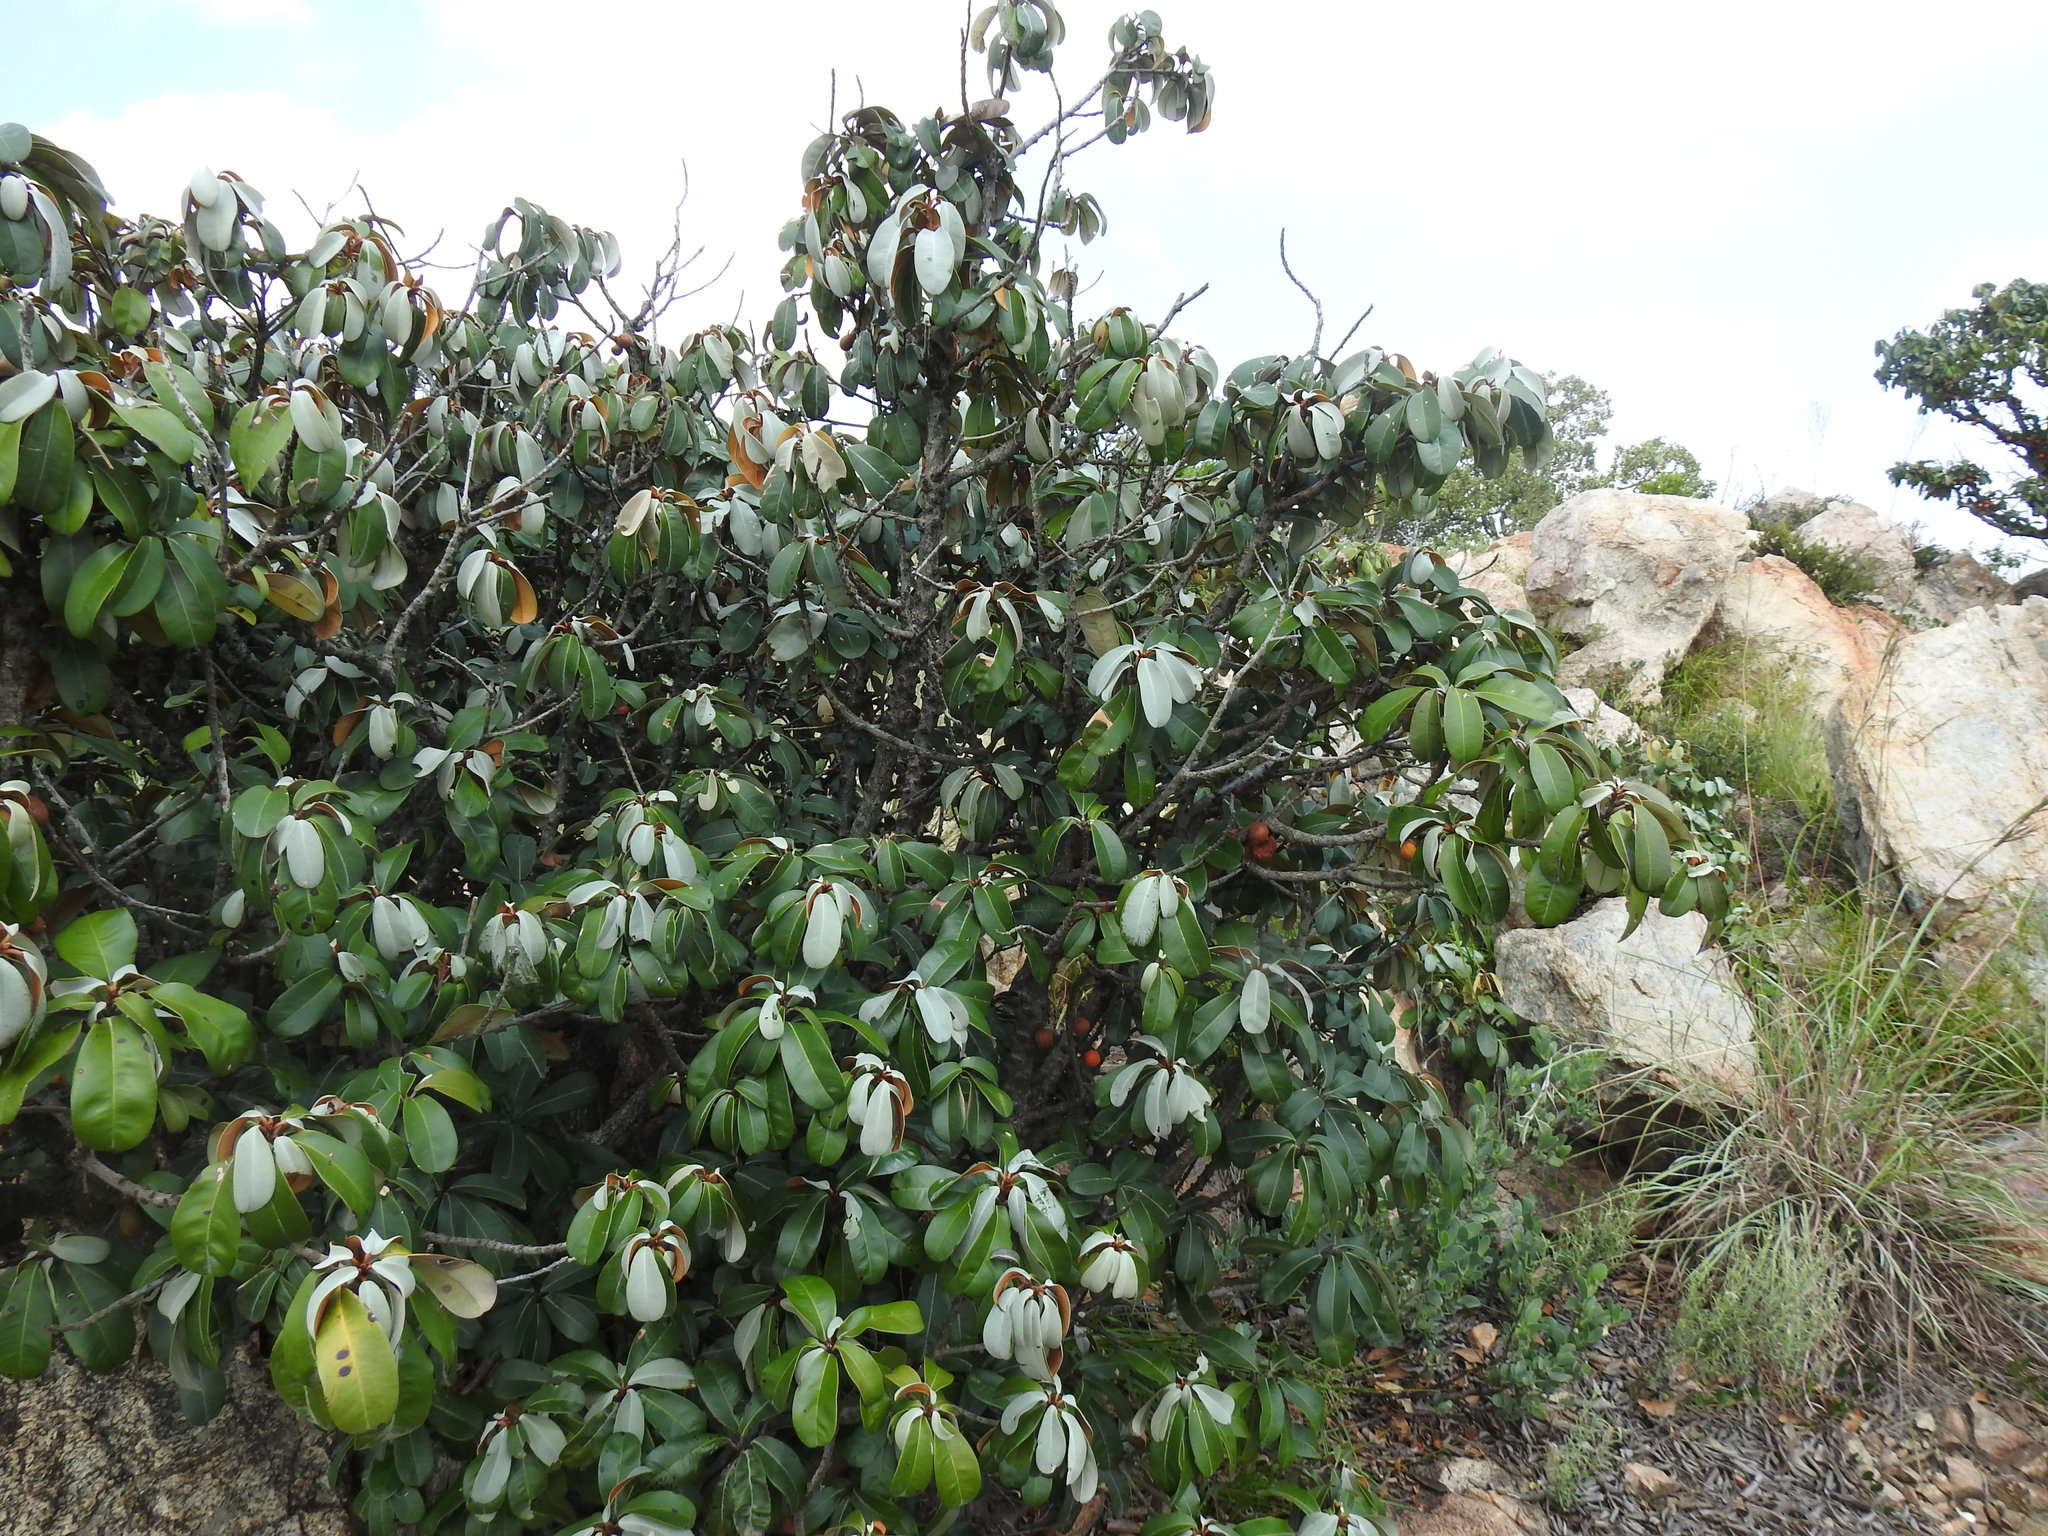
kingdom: Plantae
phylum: Tracheophyta
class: Magnoliopsida
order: Ericales
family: Sapotaceae
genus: Englerophytum
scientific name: Englerophytum magalismontanum
